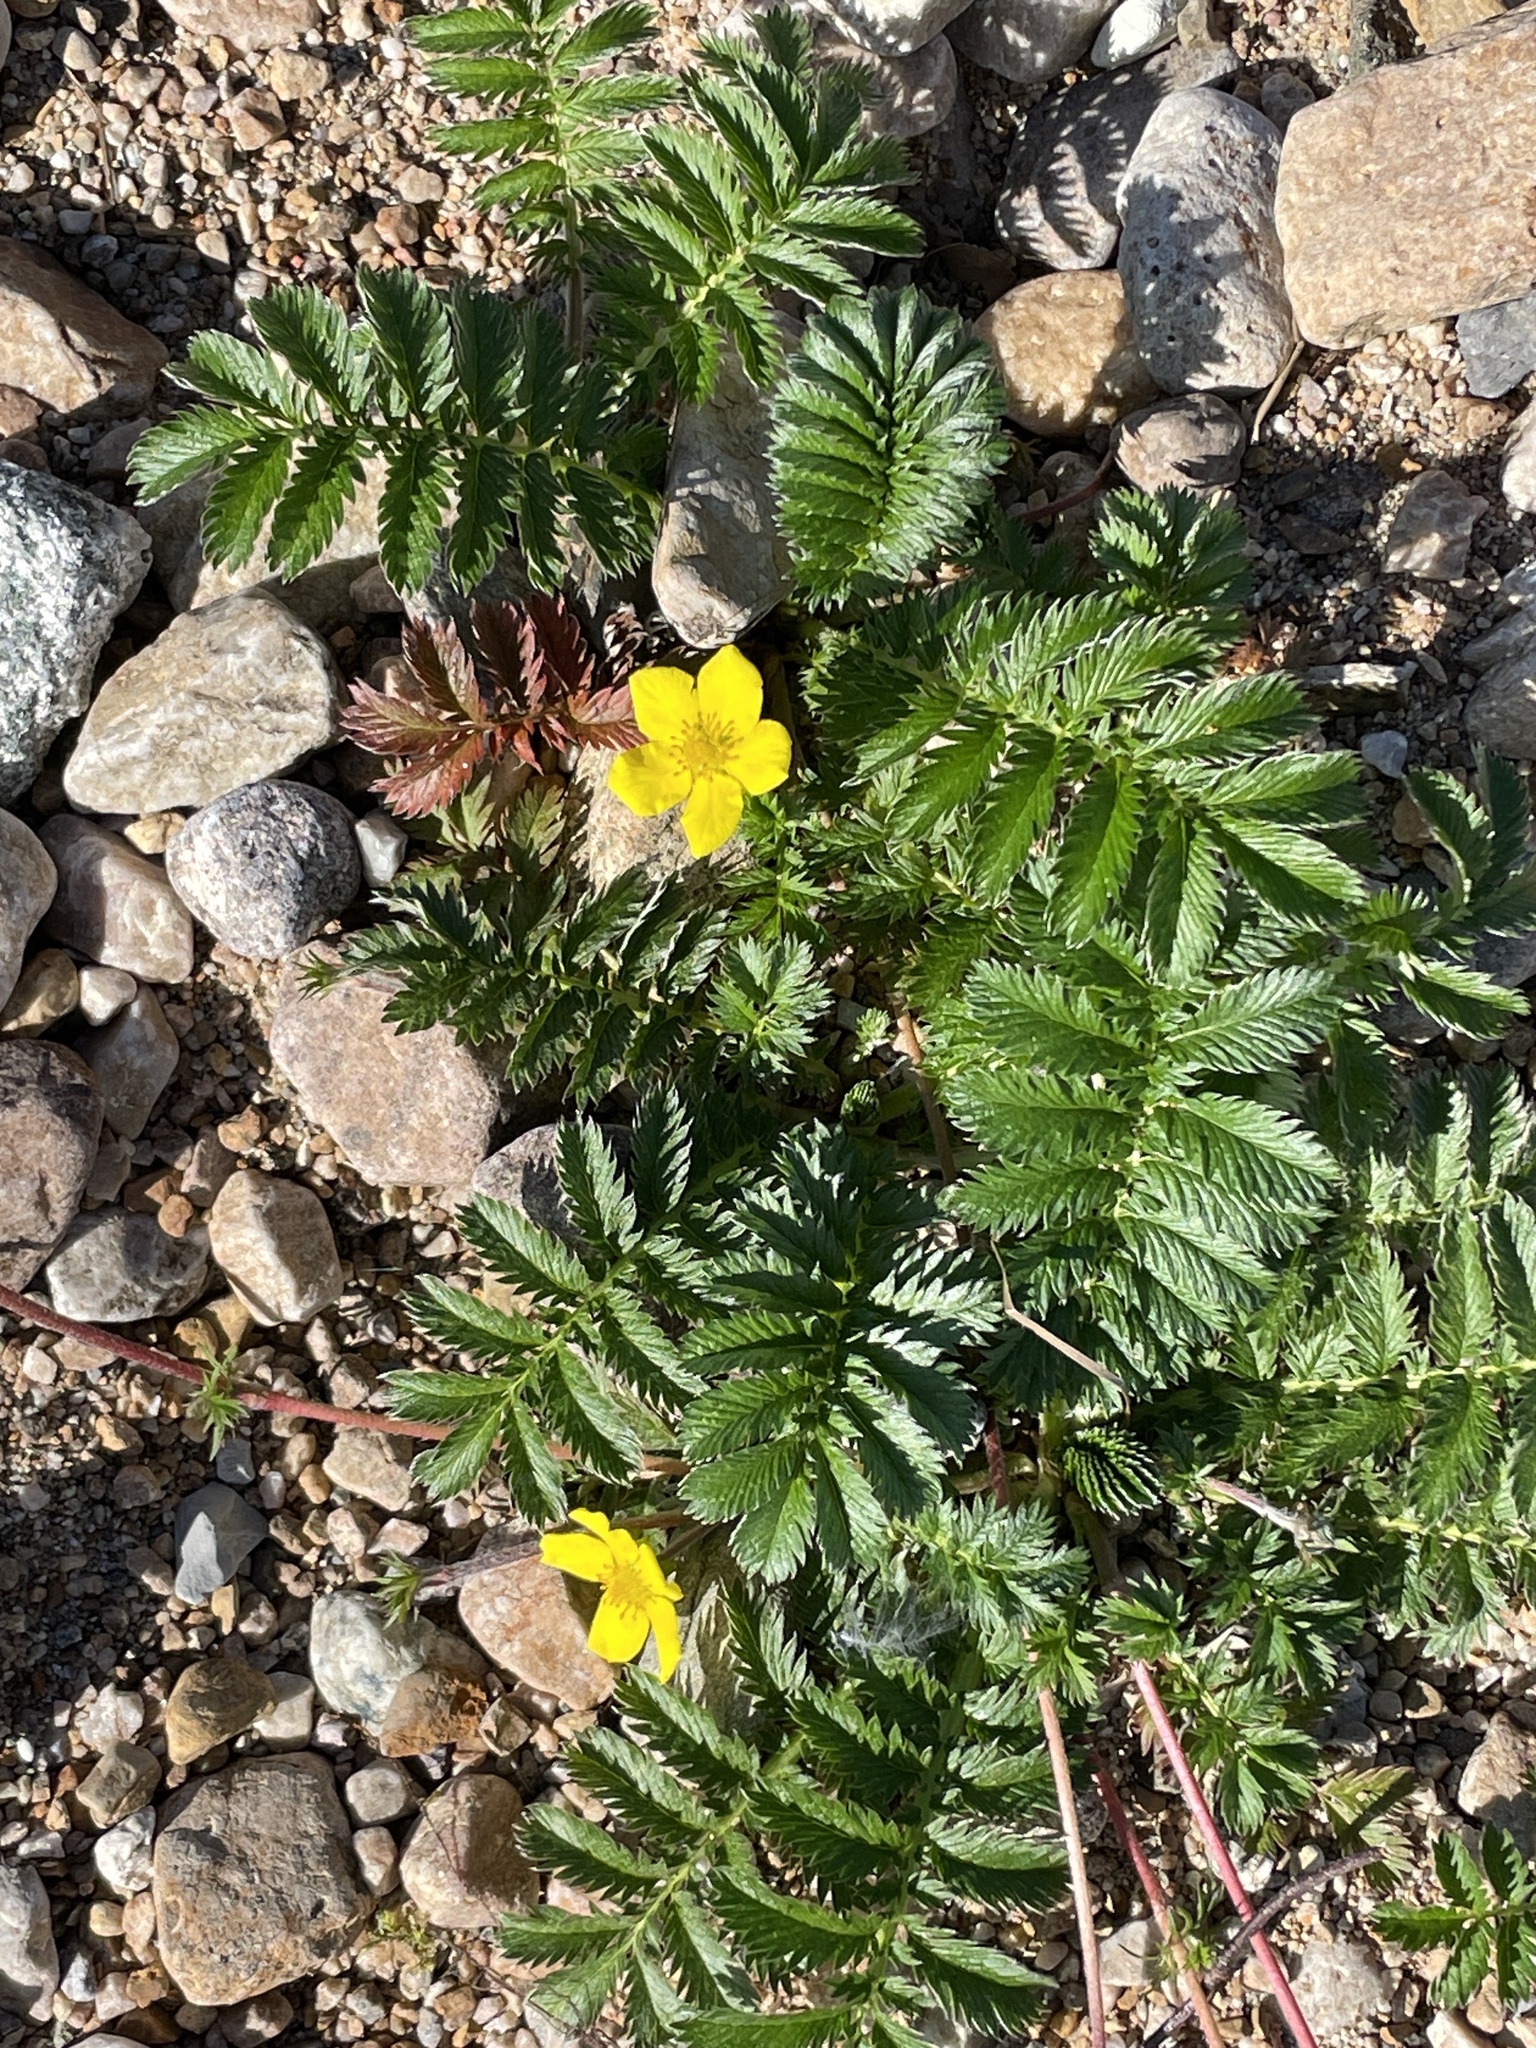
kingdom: Plantae
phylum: Tracheophyta
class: Magnoliopsida
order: Rosales
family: Rosaceae
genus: Argentina
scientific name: Argentina anserina
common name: Common silverweed
